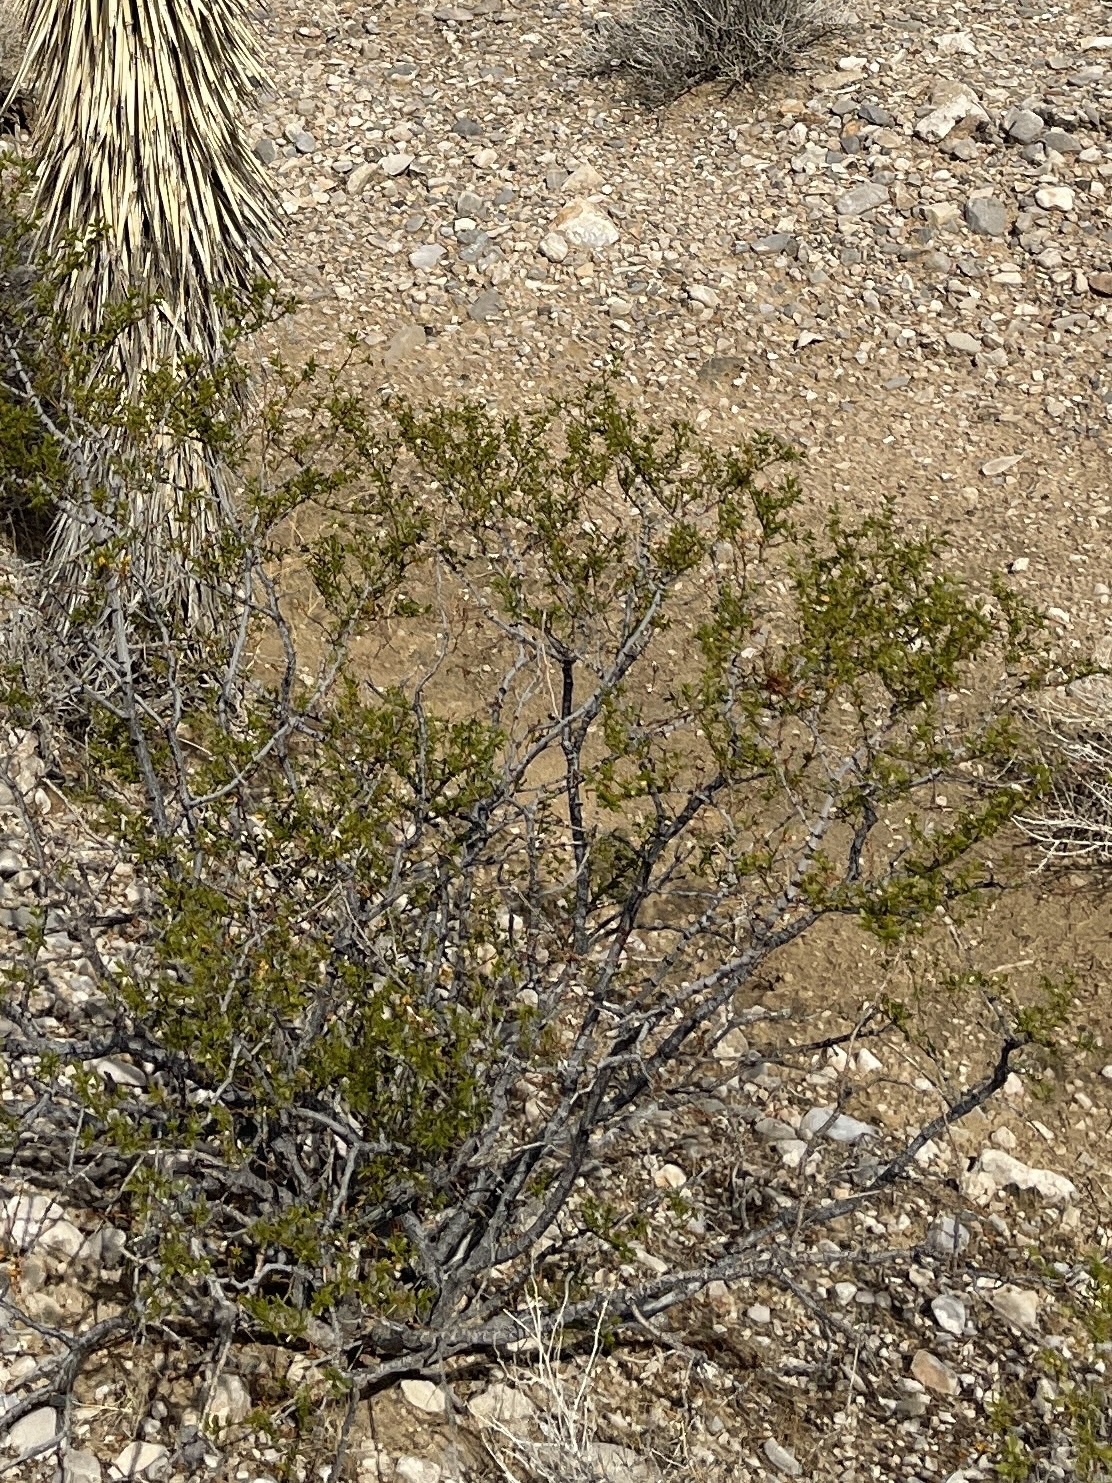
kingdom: Plantae
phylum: Tracheophyta
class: Magnoliopsida
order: Zygophyllales
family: Zygophyllaceae
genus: Larrea
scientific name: Larrea tridentata
